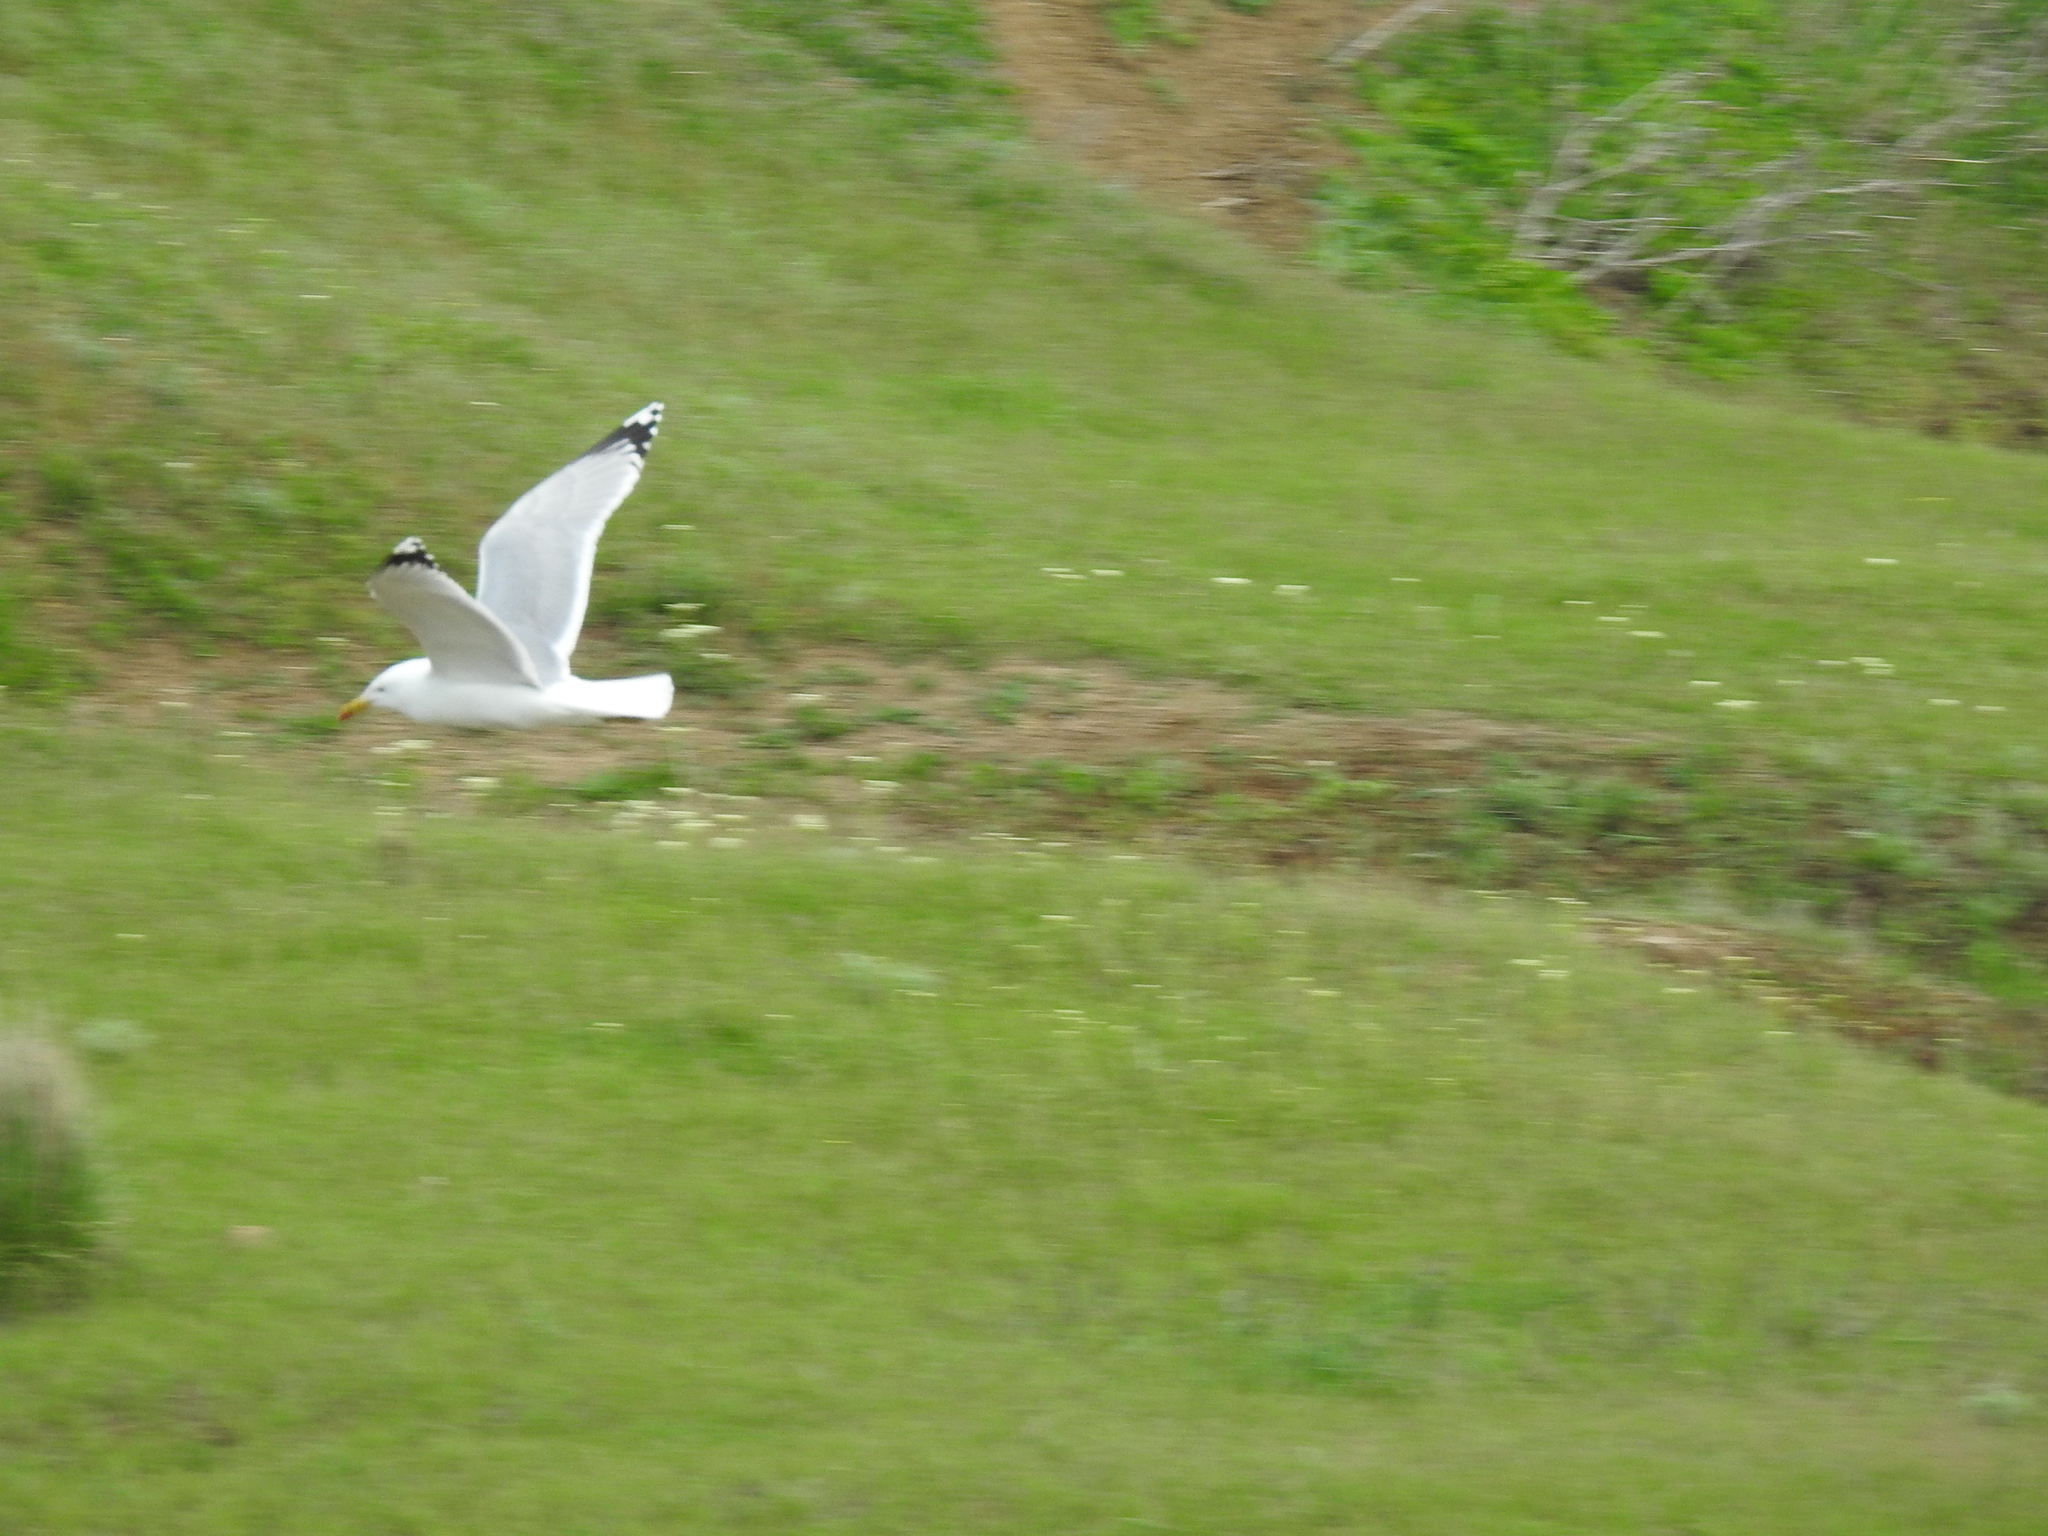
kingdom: Animalia
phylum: Chordata
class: Aves
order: Charadriiformes
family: Laridae
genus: Larus
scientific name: Larus cachinnans
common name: Caspian gull
